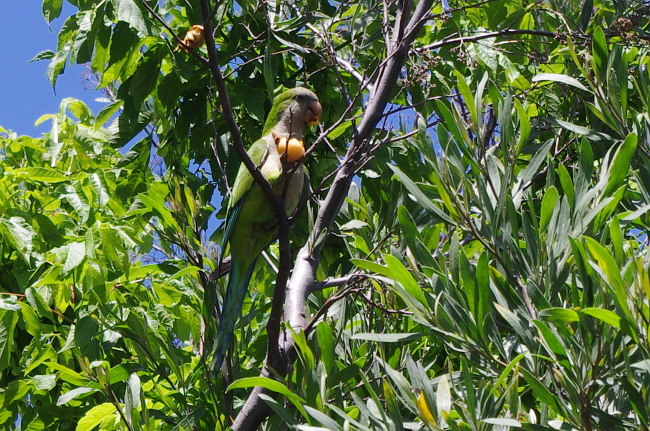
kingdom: Animalia
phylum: Chordata
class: Aves
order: Psittaciformes
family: Psittacidae
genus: Myiopsitta
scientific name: Myiopsitta monachus
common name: Monk parakeet
